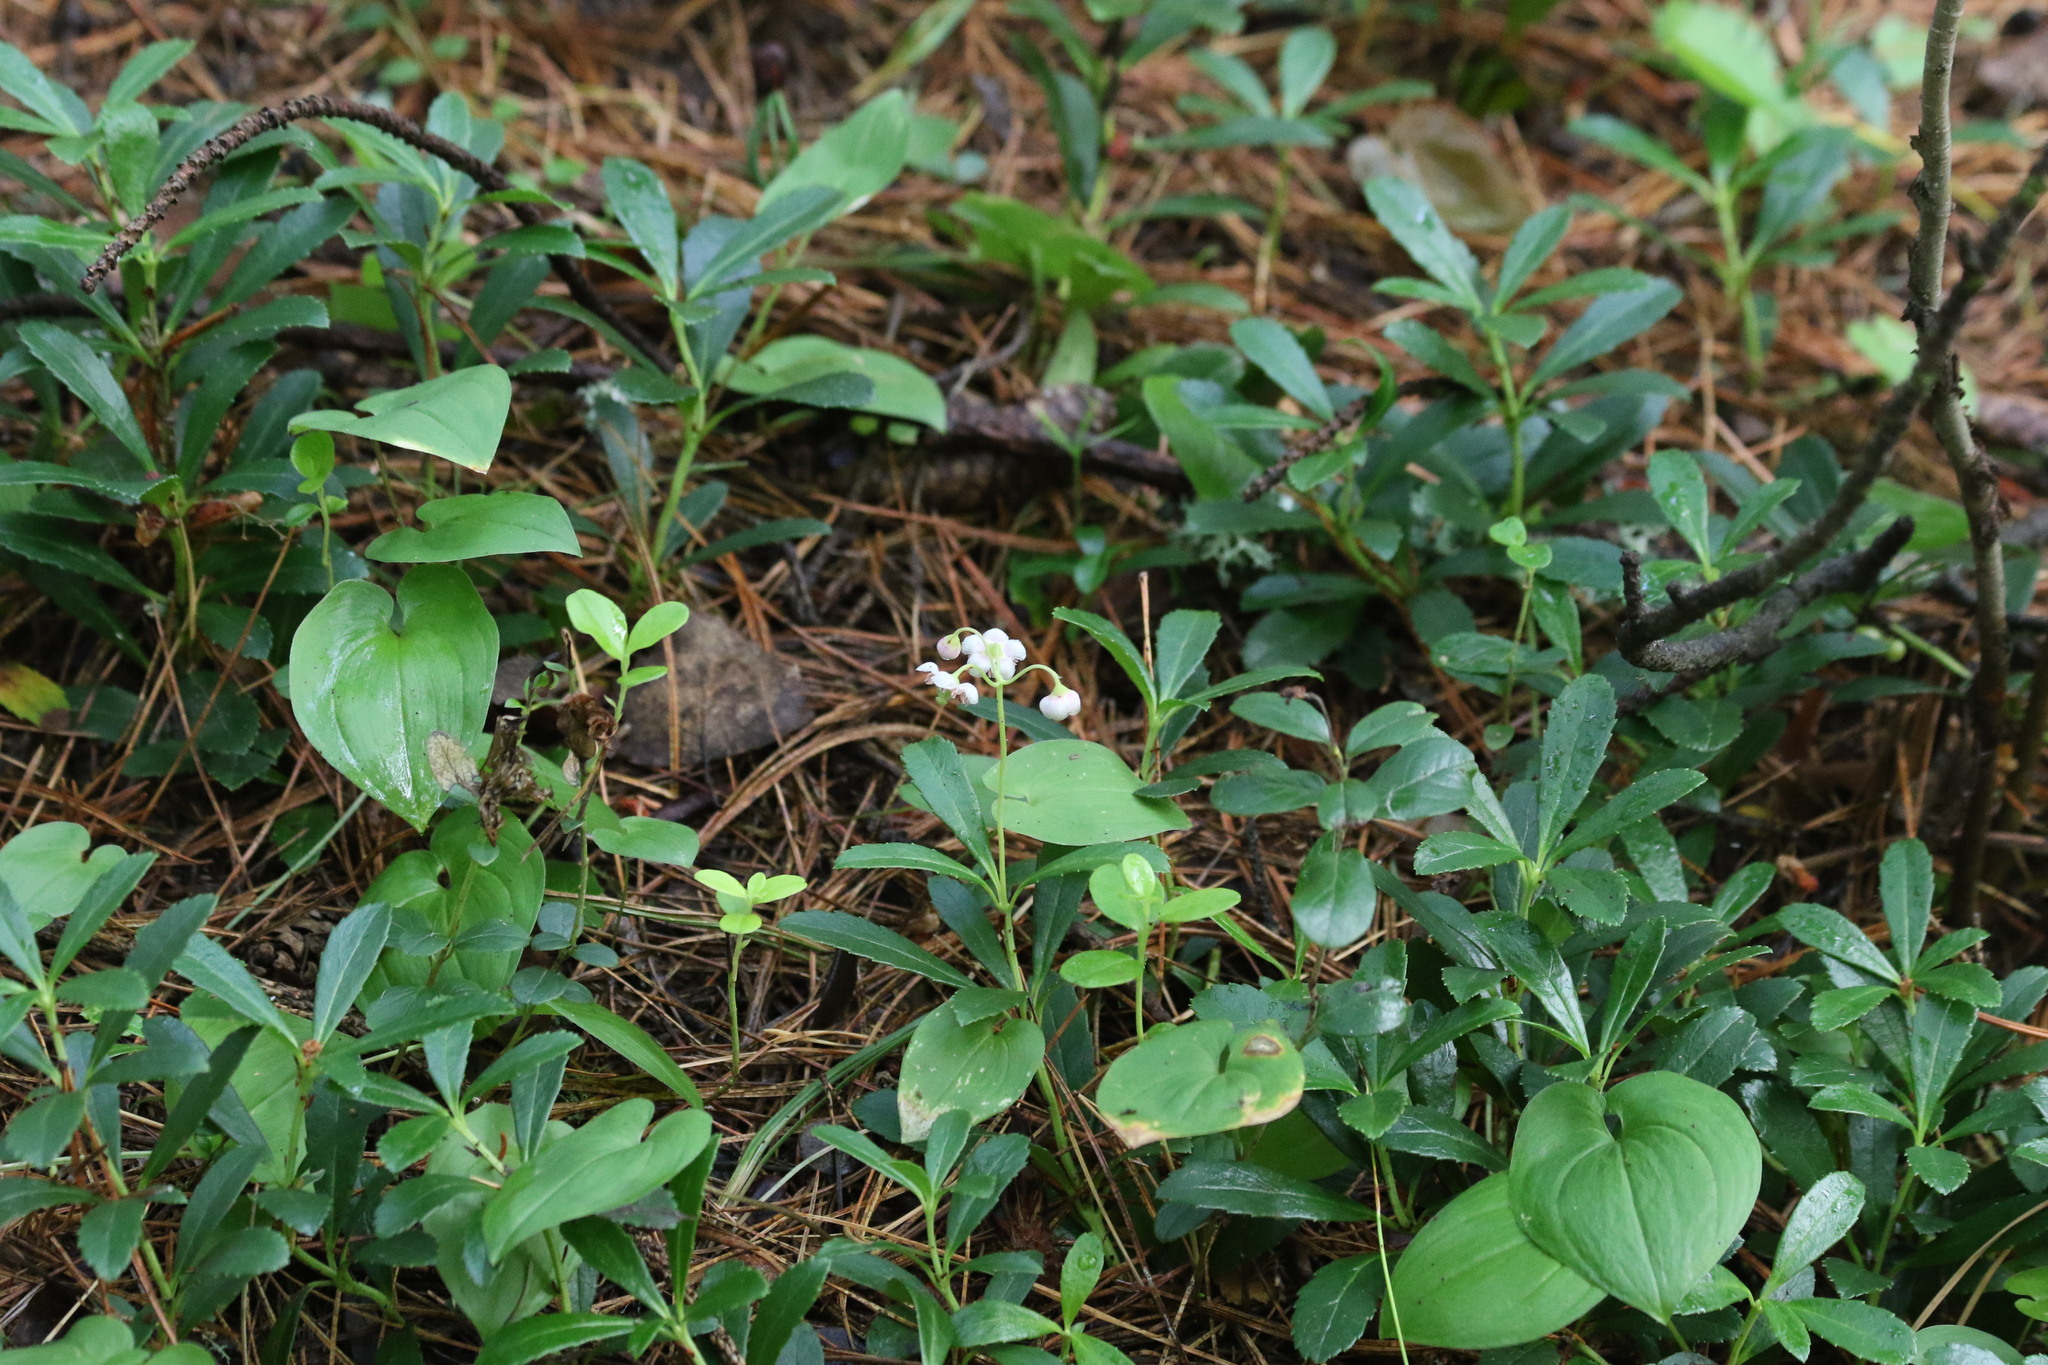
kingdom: Plantae
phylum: Tracheophyta
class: Magnoliopsida
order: Ericales
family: Ericaceae
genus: Chimaphila
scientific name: Chimaphila umbellata
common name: Pipsissewa
